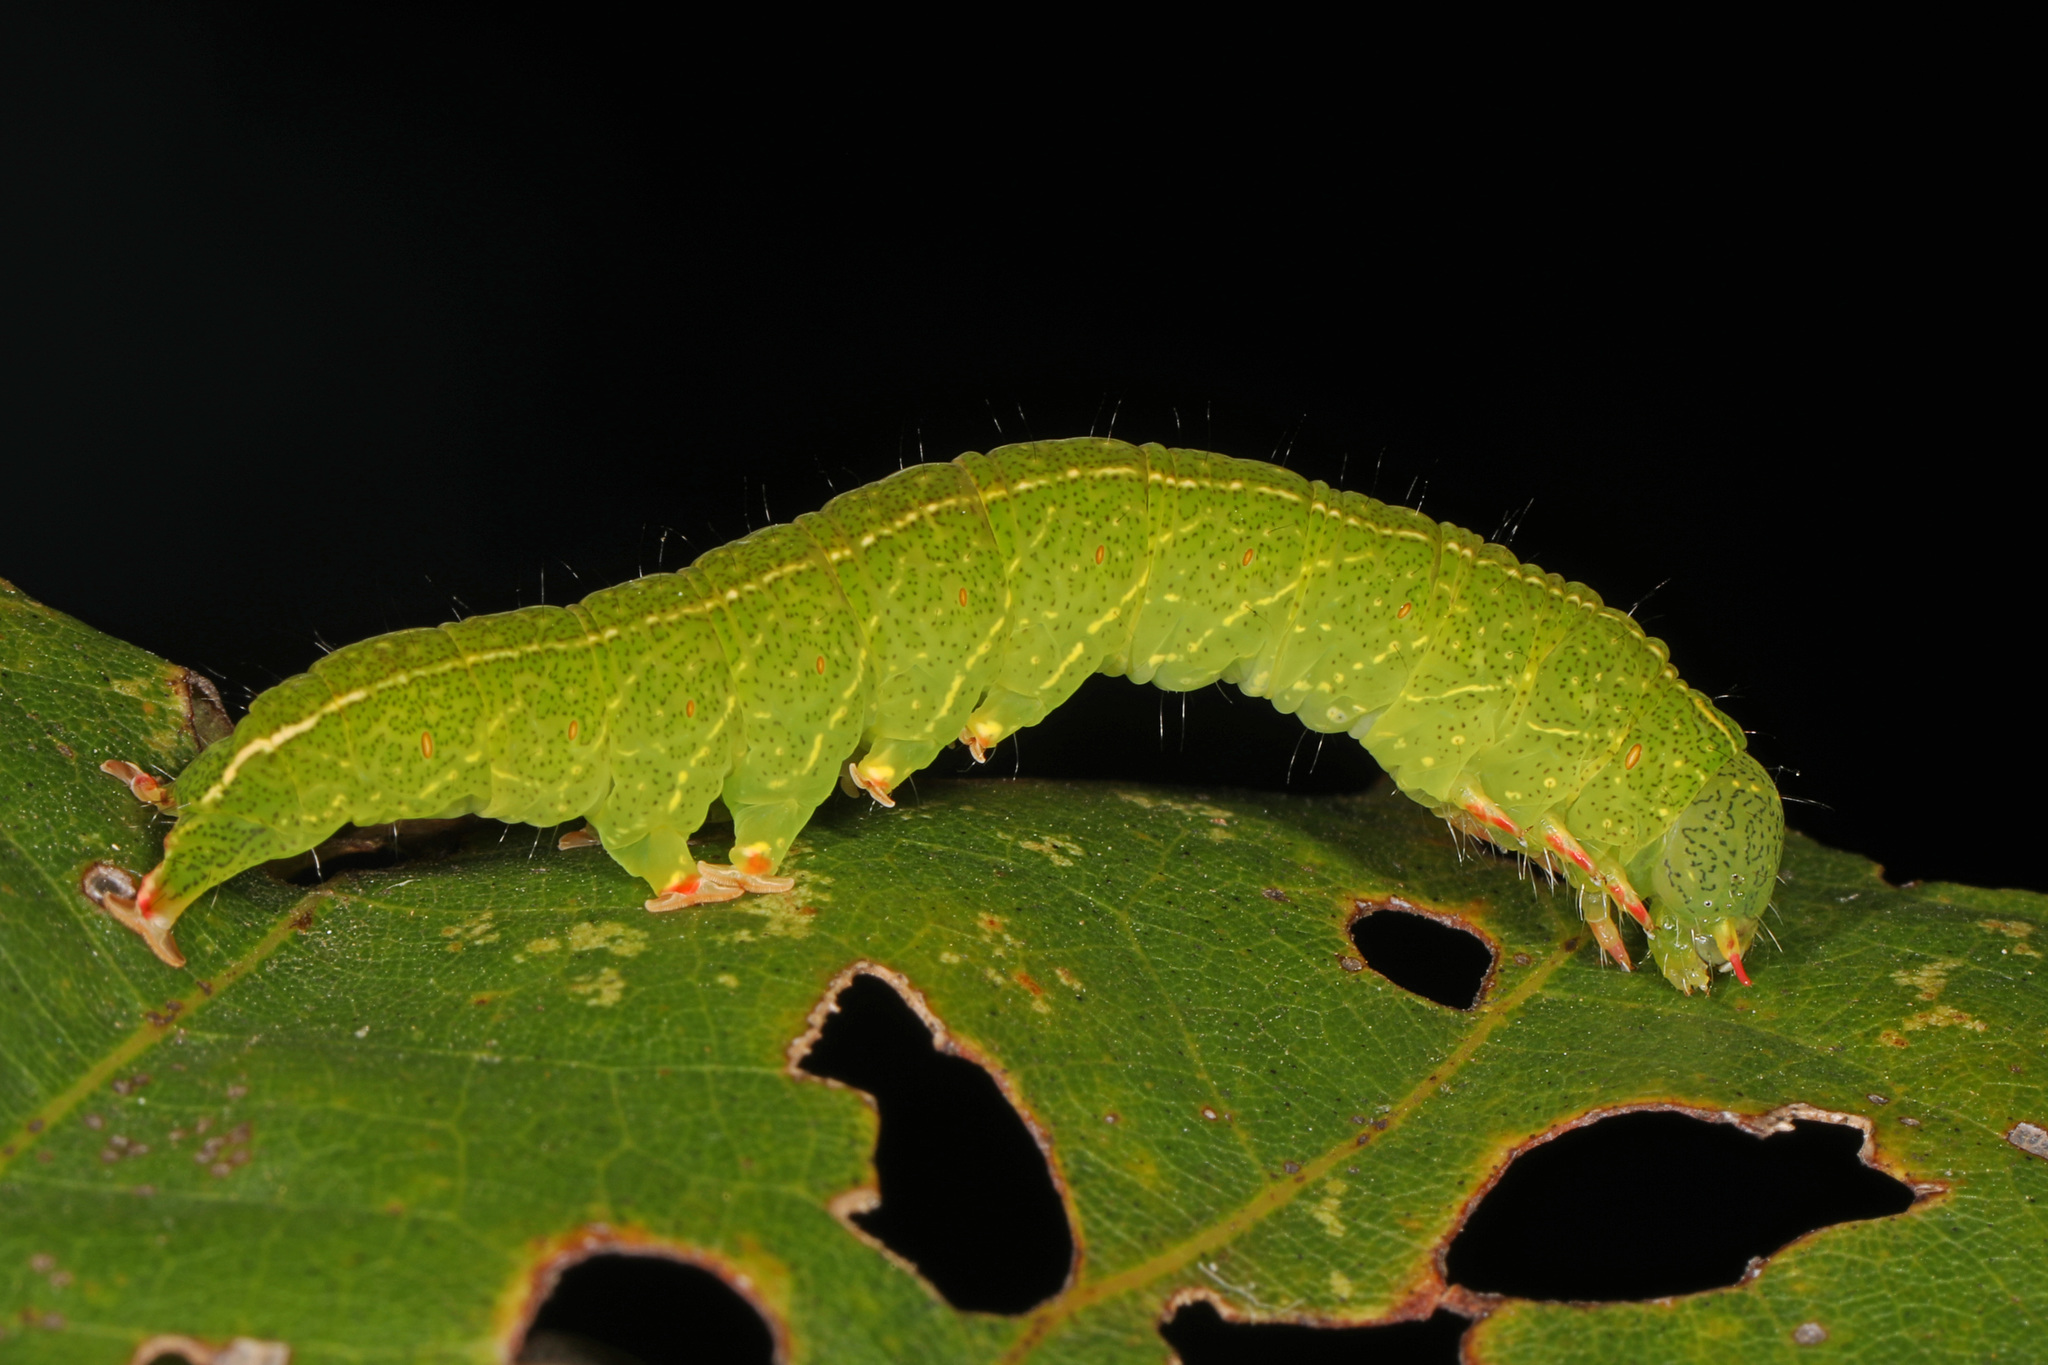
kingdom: Animalia
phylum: Arthropoda
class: Insecta
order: Lepidoptera
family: Erebidae
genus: Panopoda
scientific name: Panopoda rufimargo
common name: Red-lined panopoda moth
